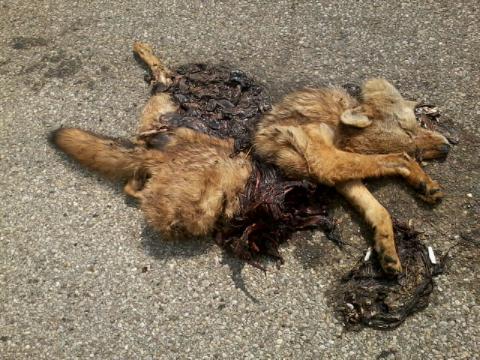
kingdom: Animalia
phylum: Chordata
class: Mammalia
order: Carnivora
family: Canidae
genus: Canis
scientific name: Canis latrans
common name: Coyote
